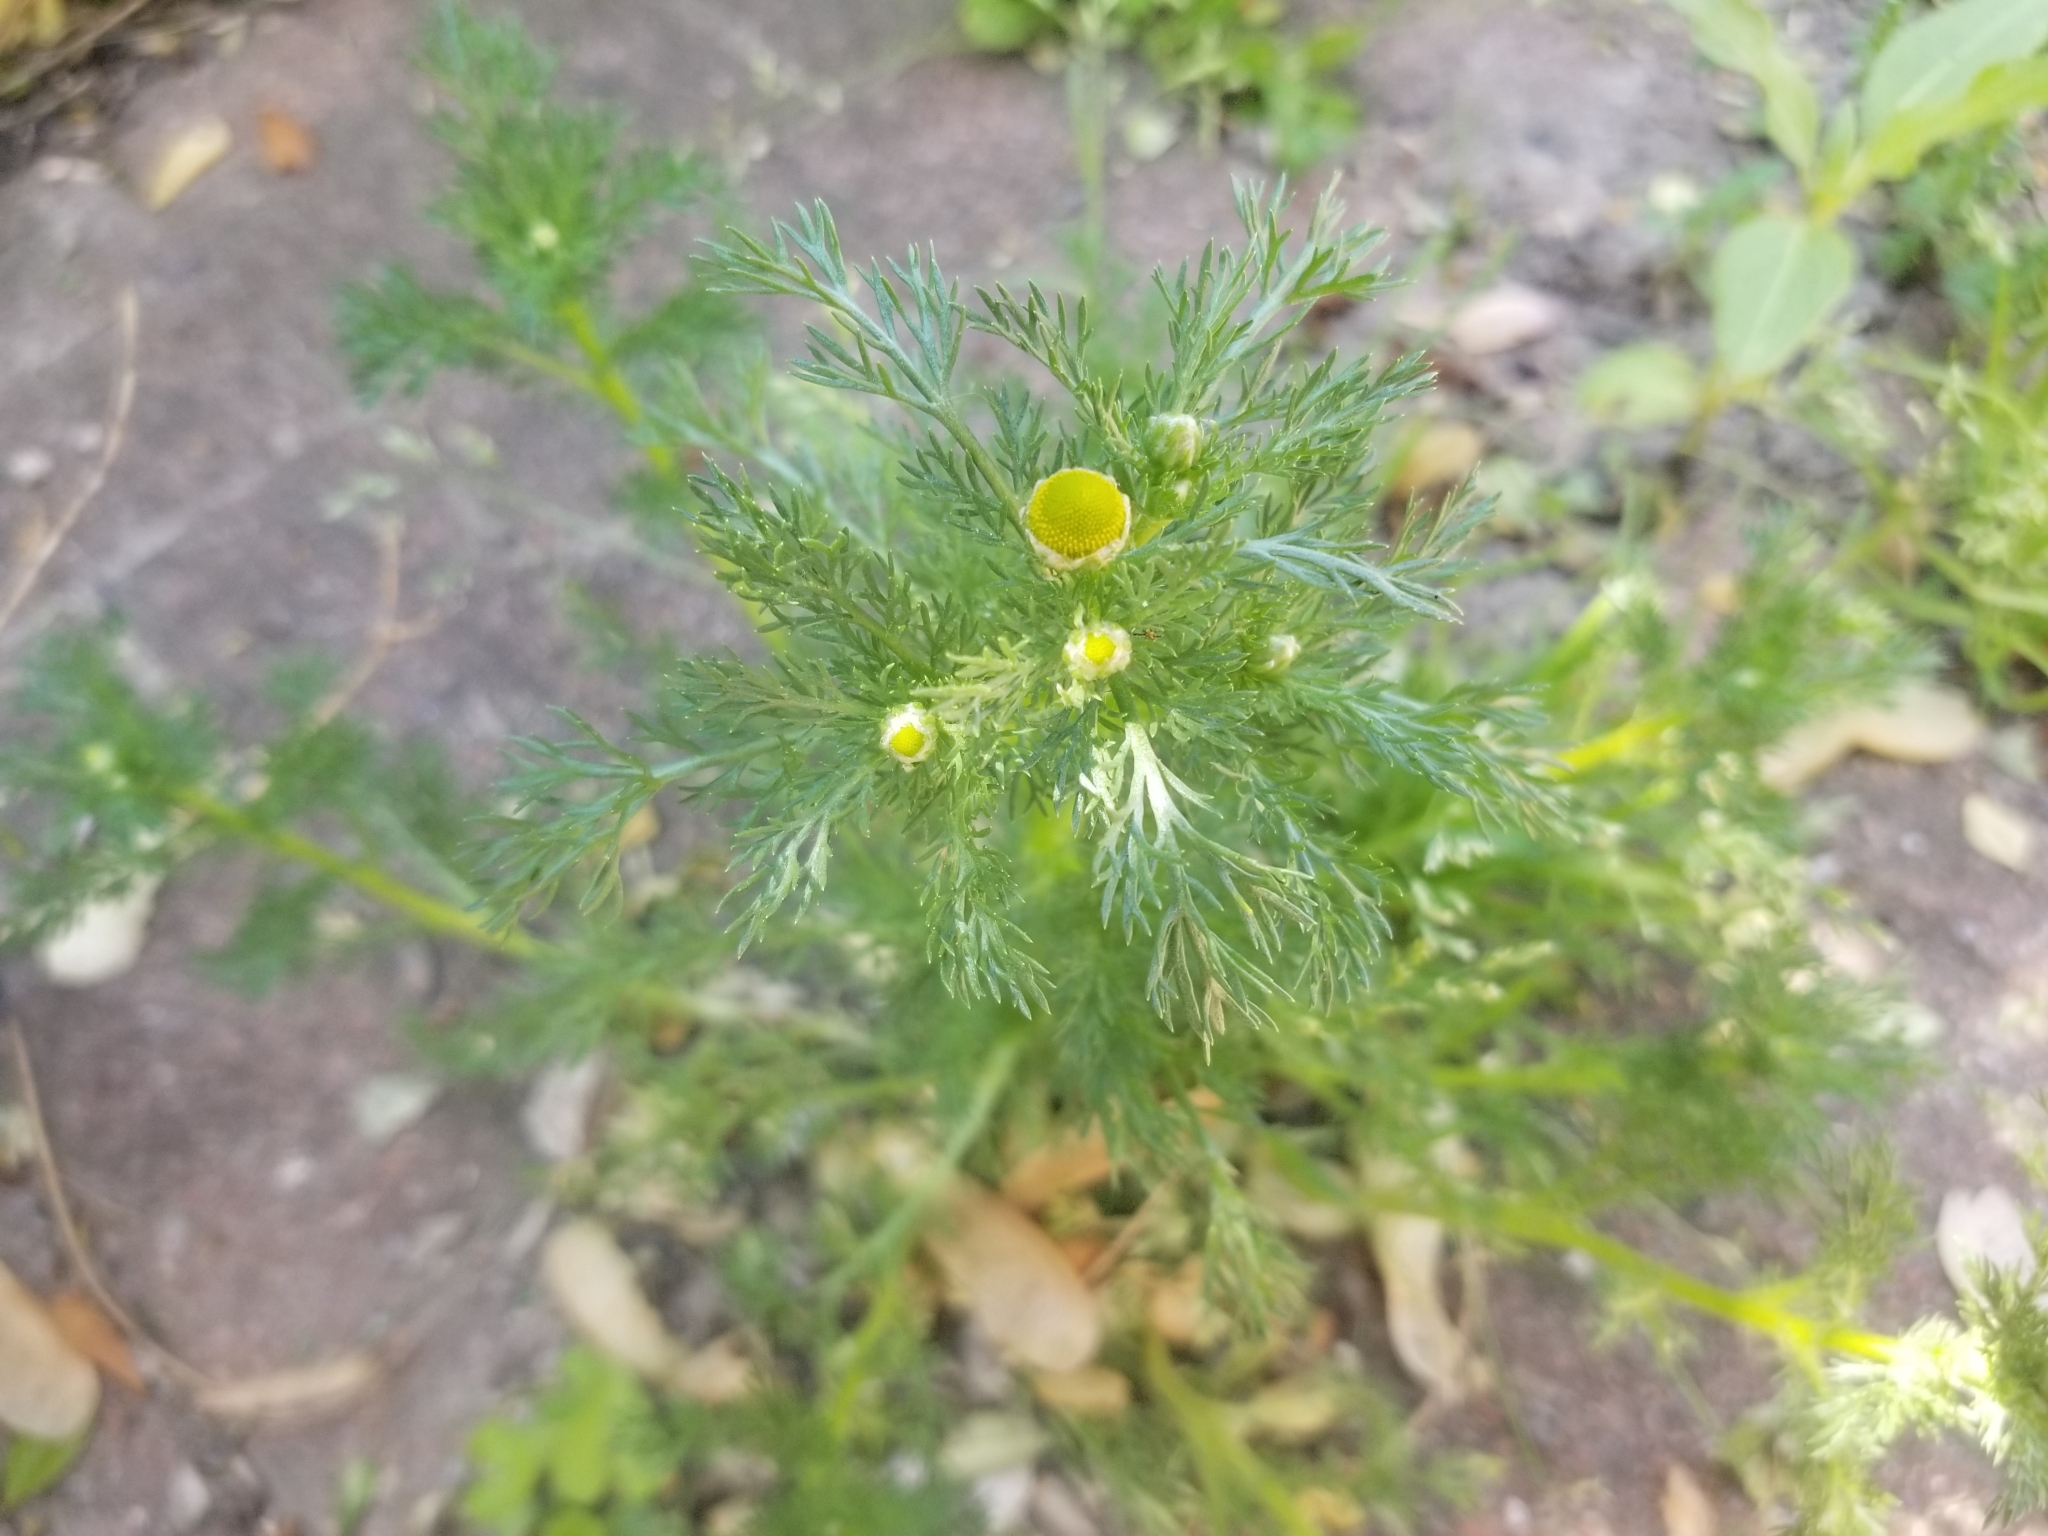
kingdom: Plantae
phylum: Tracheophyta
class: Magnoliopsida
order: Asterales
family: Asteraceae
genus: Matricaria
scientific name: Matricaria discoidea
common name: Disc mayweed
